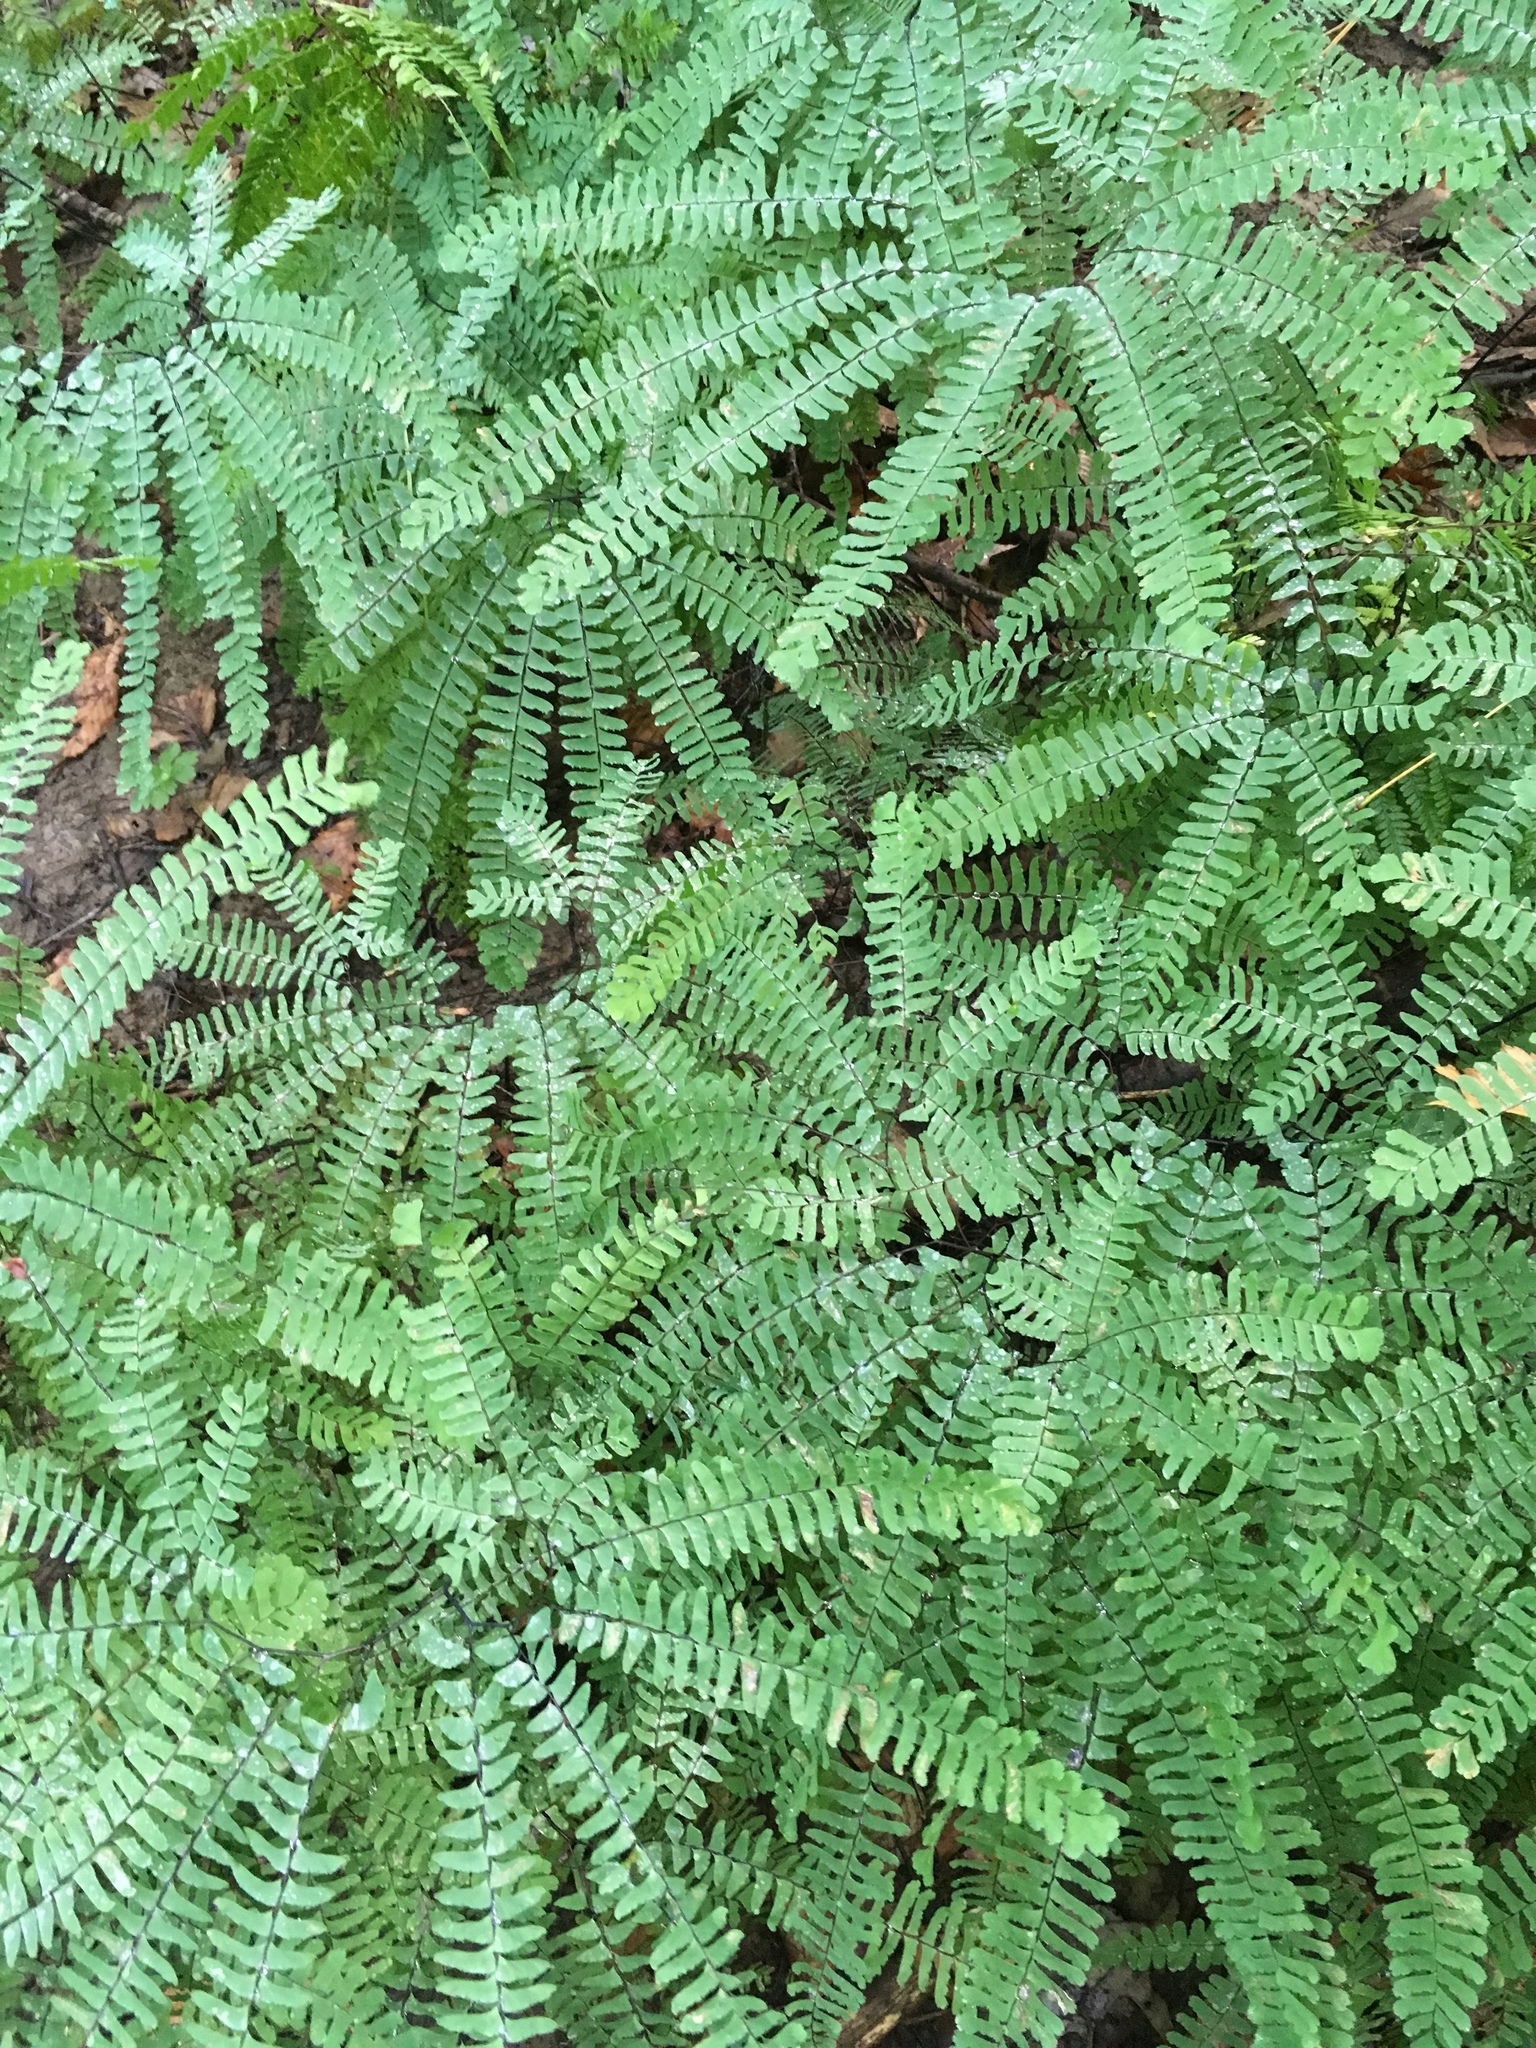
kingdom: Plantae
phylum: Tracheophyta
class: Polypodiopsida
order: Polypodiales
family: Pteridaceae
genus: Adiantum
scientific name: Adiantum pedatum
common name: Five-finger fern
